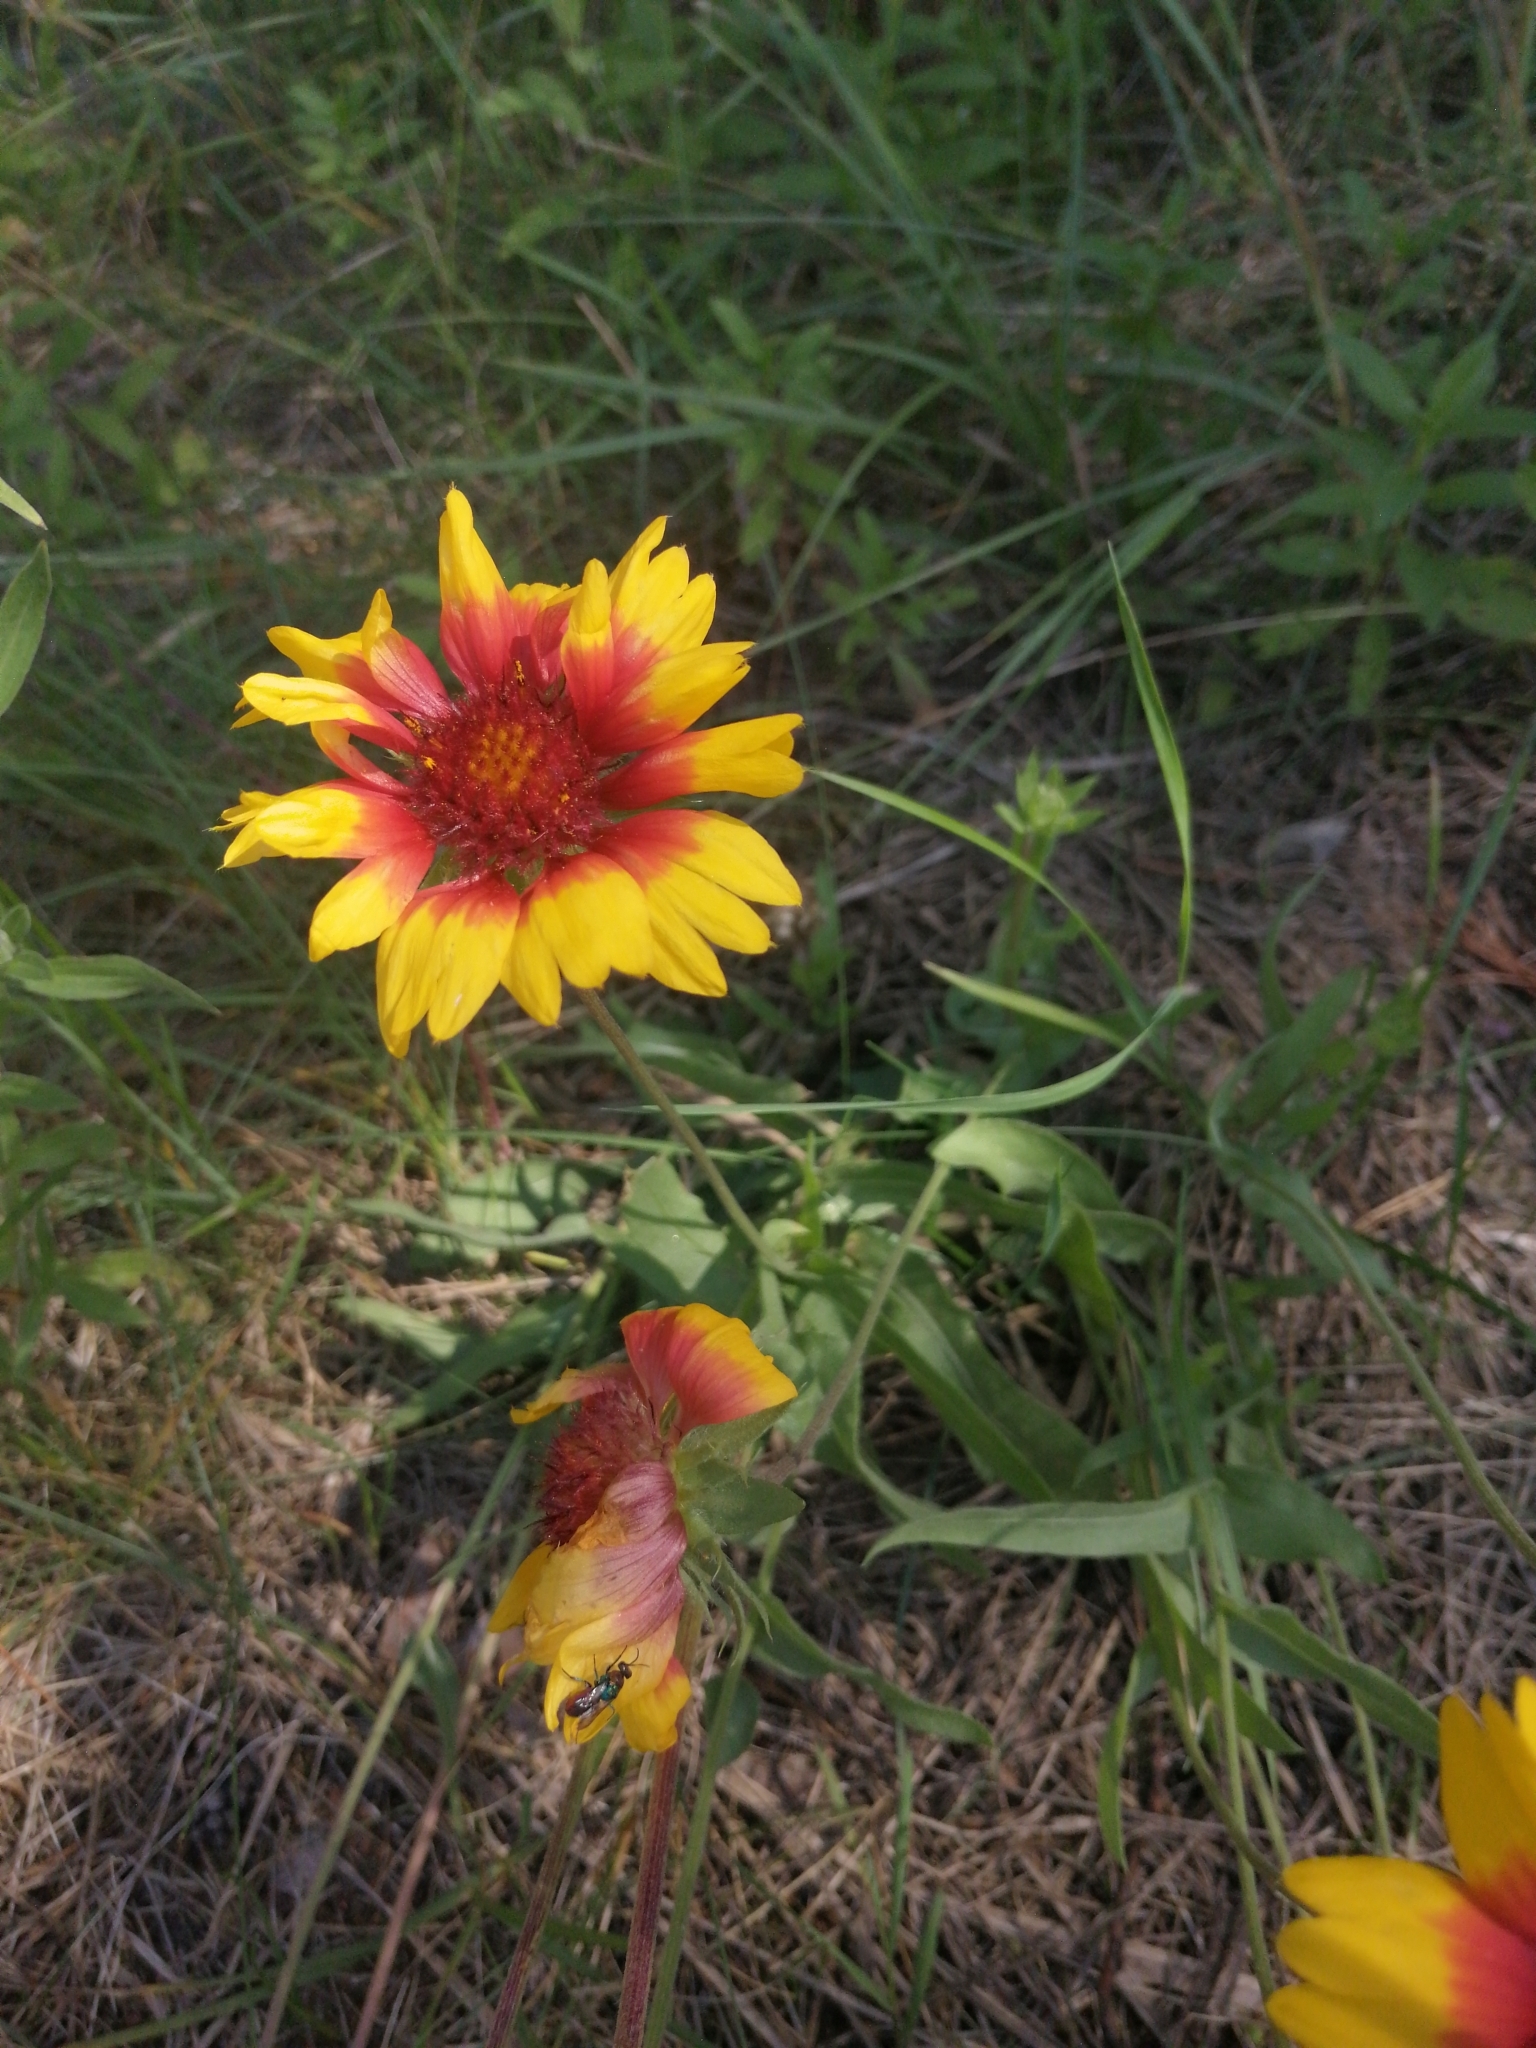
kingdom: Plantae
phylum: Tracheophyta
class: Magnoliopsida
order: Asterales
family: Asteraceae
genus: Gaillardia
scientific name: Gaillardia grandiflora
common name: Blanket flower
